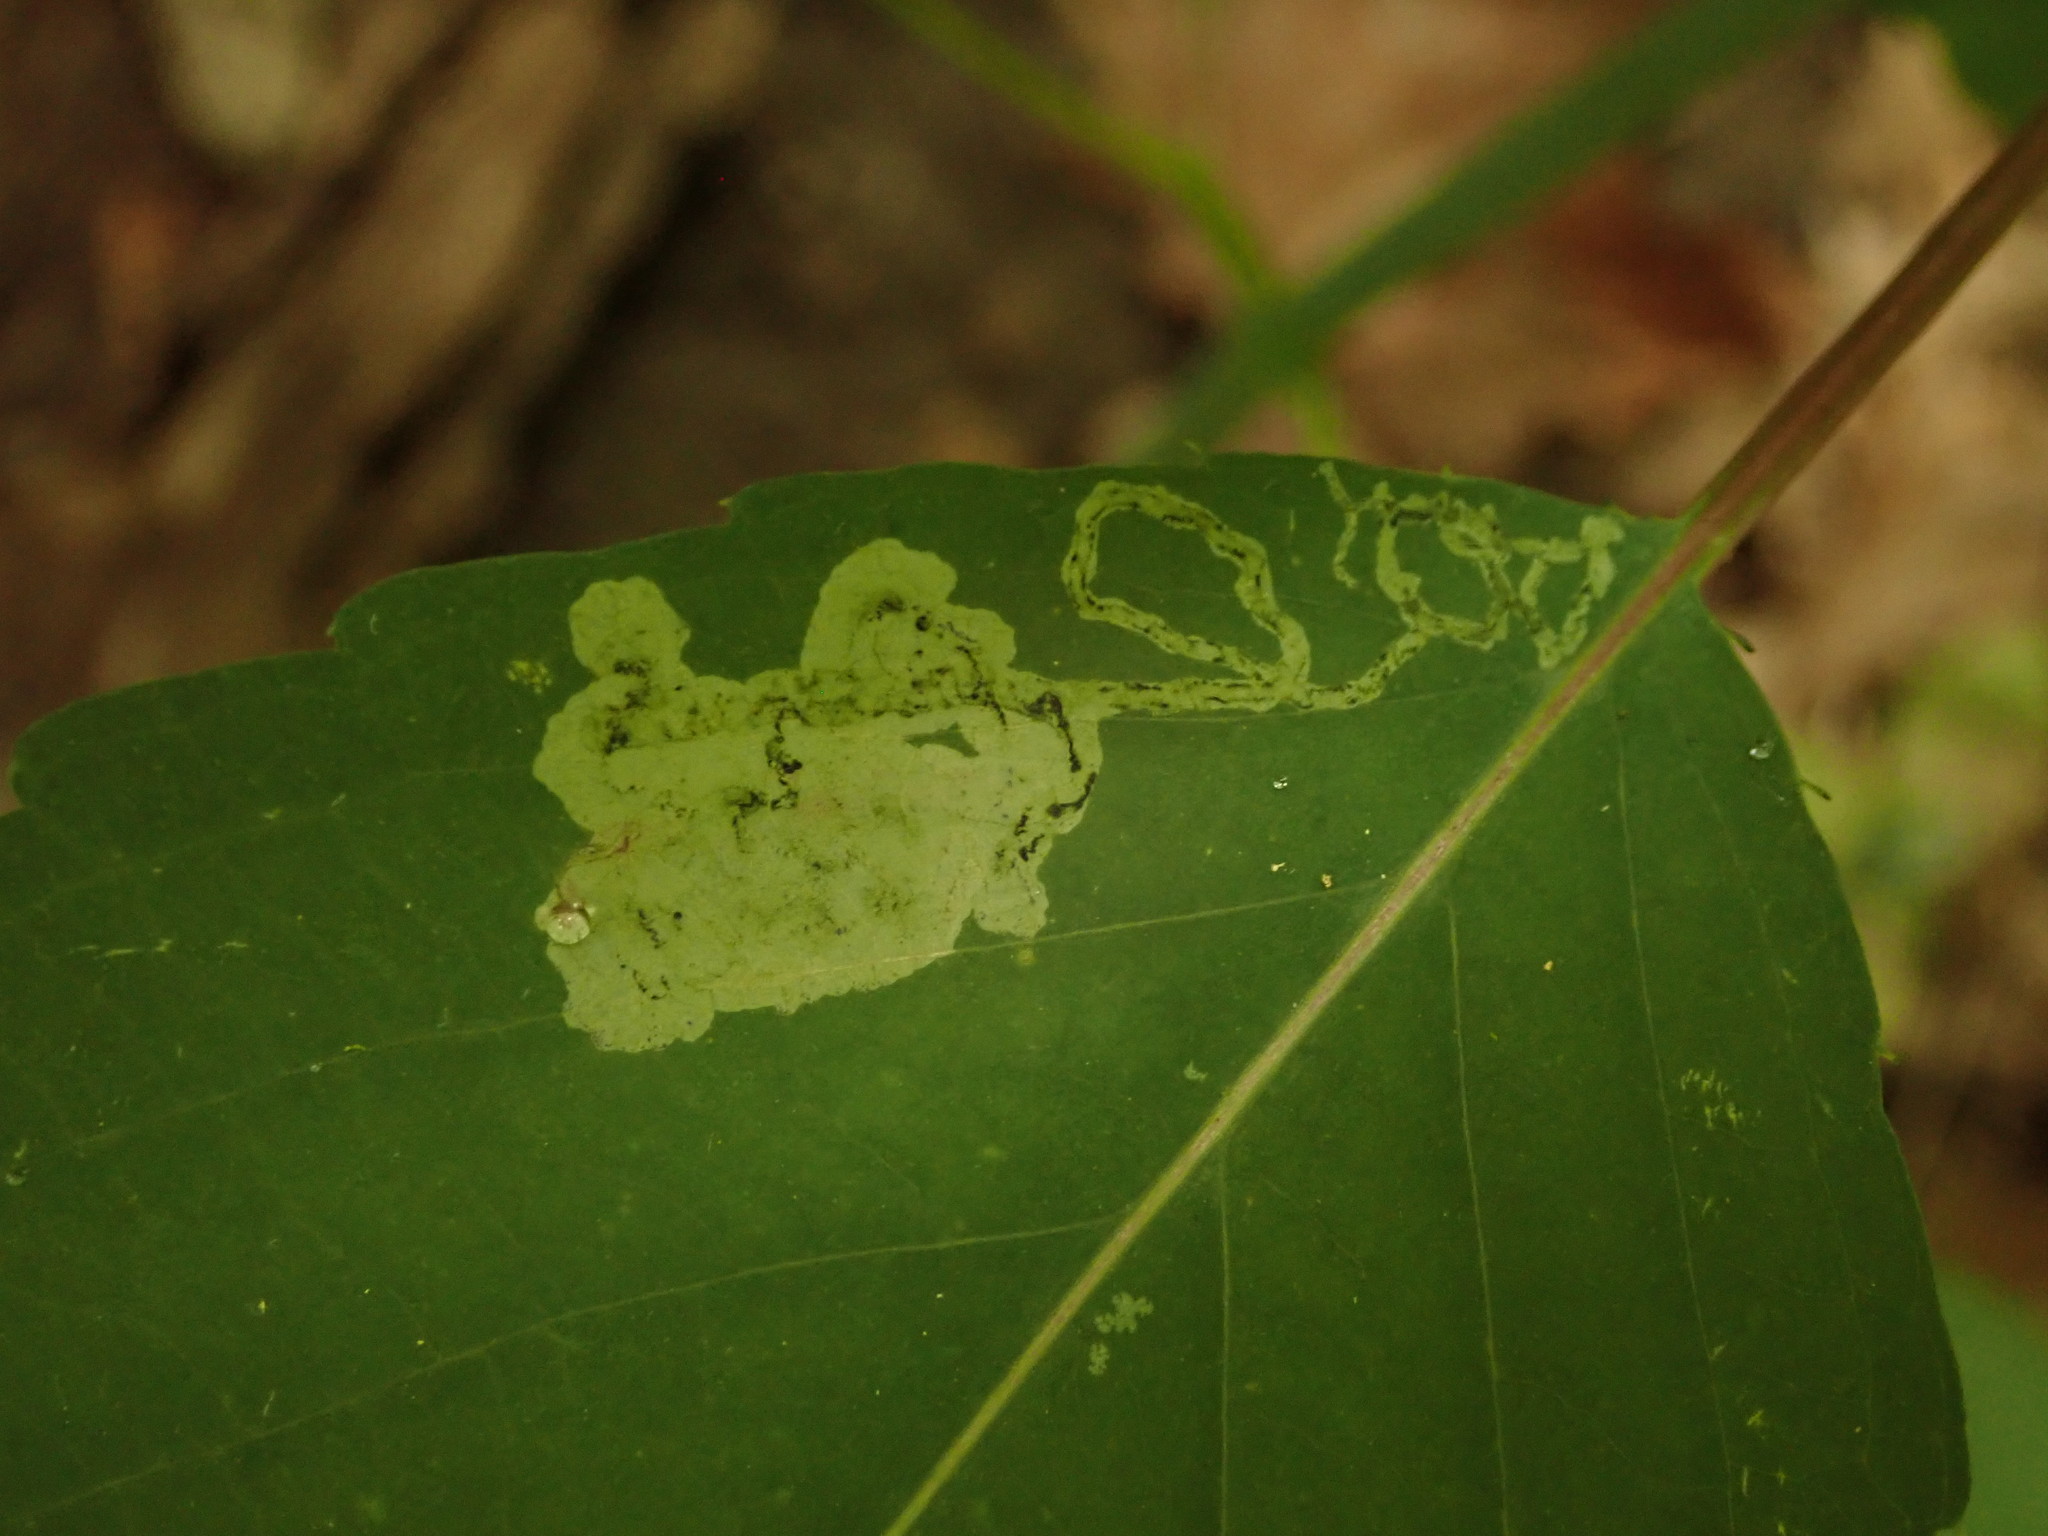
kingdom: Animalia
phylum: Arthropoda
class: Insecta
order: Diptera
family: Agromyzidae
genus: Phytoliriomyza
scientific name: Phytoliriomyza melampyga
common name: Jewelweed leaf-miner fly
